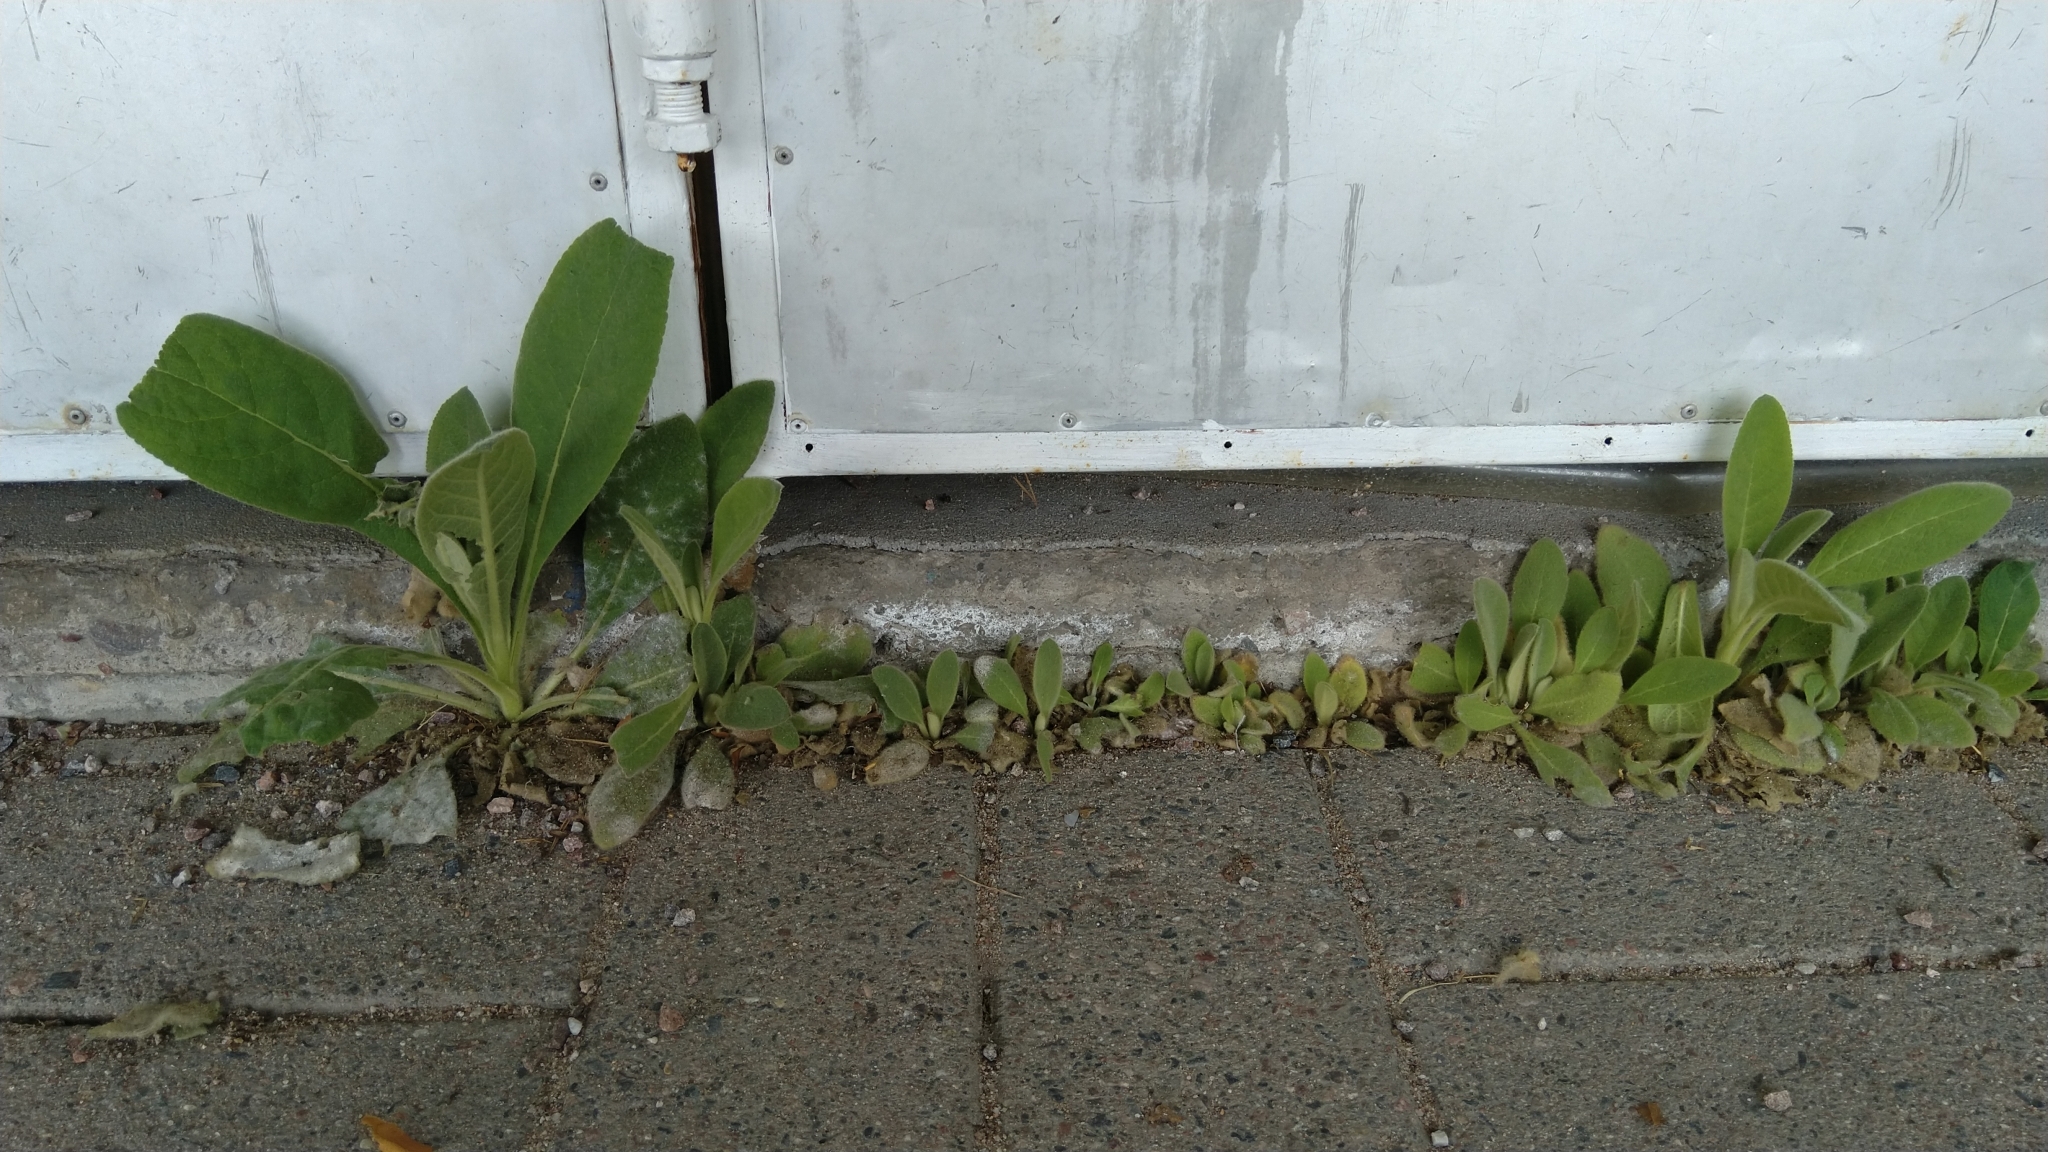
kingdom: Plantae
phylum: Tracheophyta
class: Magnoliopsida
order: Lamiales
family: Scrophulariaceae
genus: Verbascum
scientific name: Verbascum thapsus
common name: Common mullein
